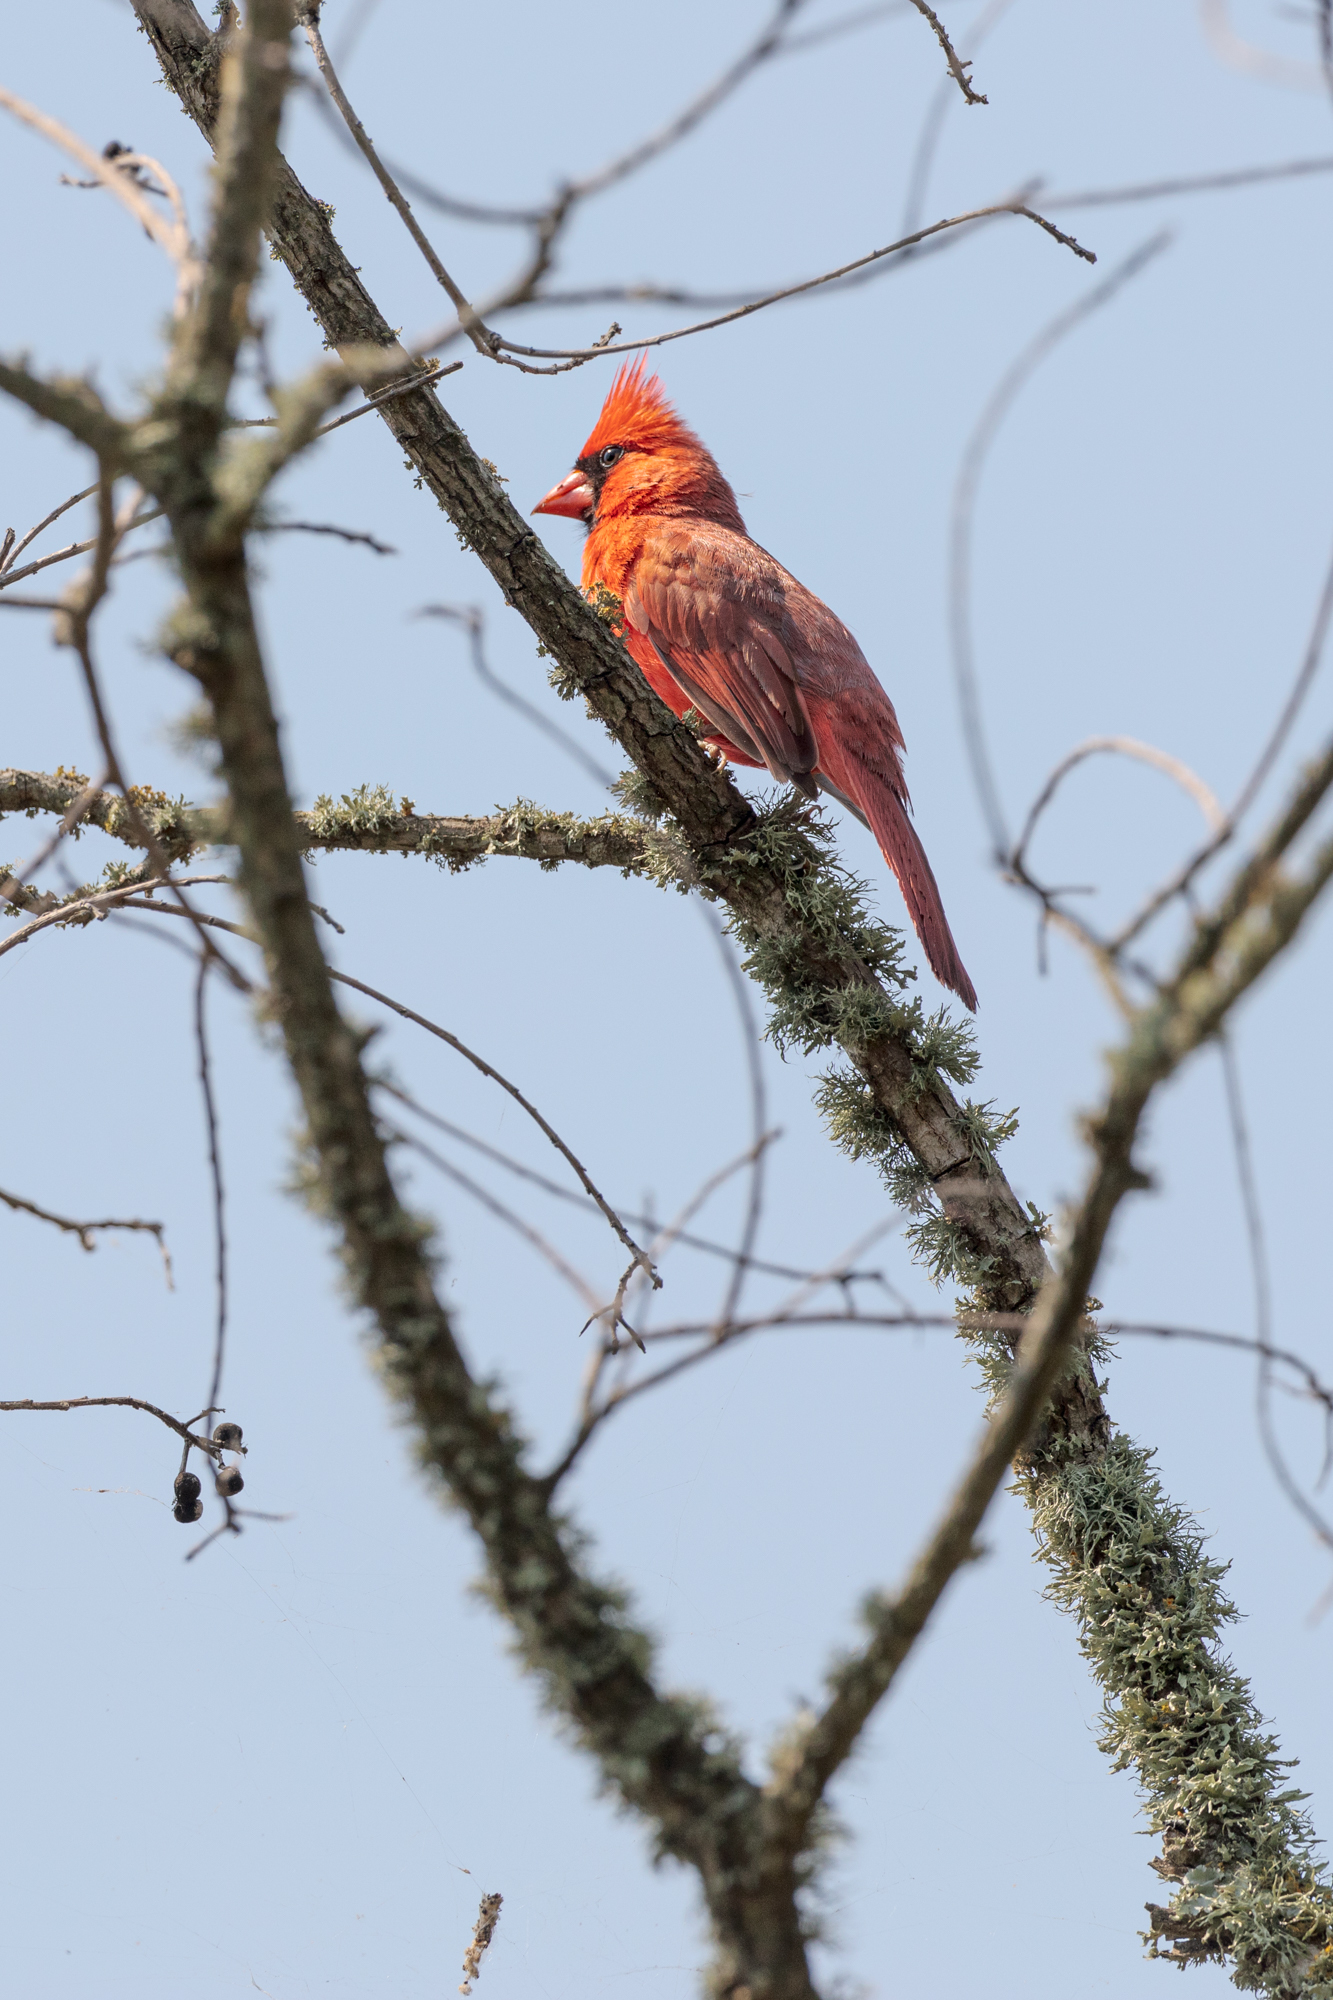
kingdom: Animalia
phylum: Chordata
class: Aves
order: Passeriformes
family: Cardinalidae
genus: Cardinalis
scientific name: Cardinalis cardinalis
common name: Northern cardinal
